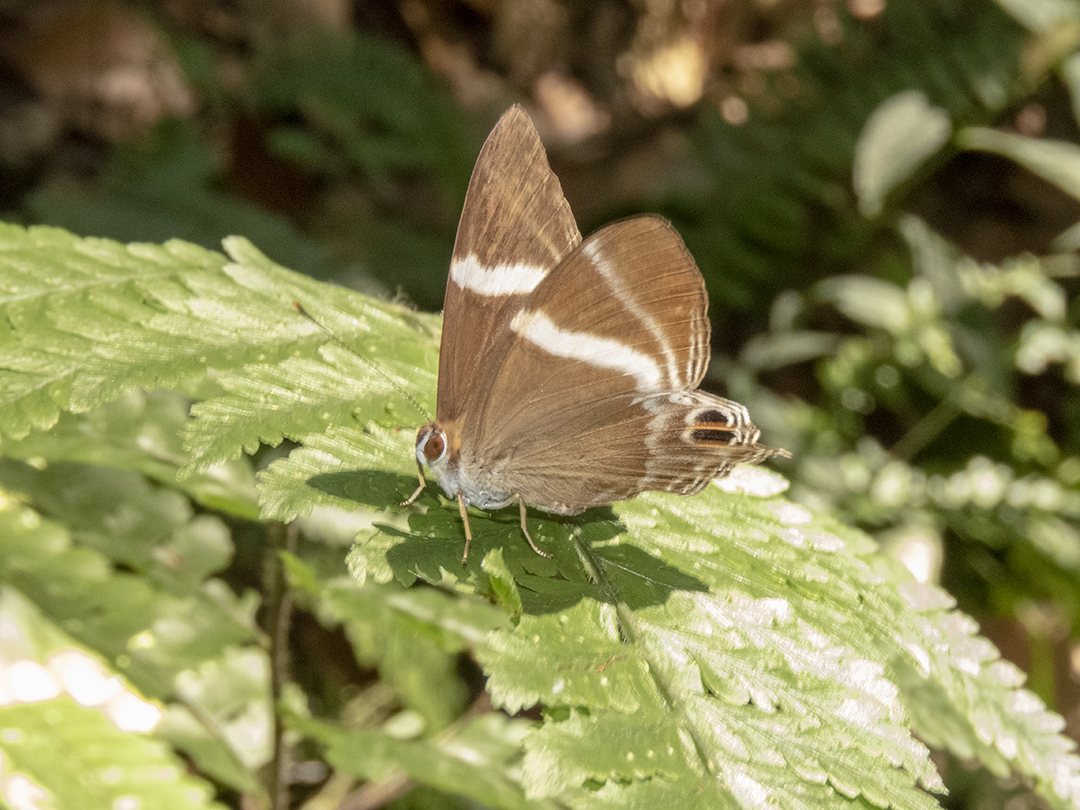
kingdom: Animalia
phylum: Arthropoda
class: Insecta
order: Lepidoptera
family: Lycaenidae
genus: Abisara
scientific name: Abisara neophron
